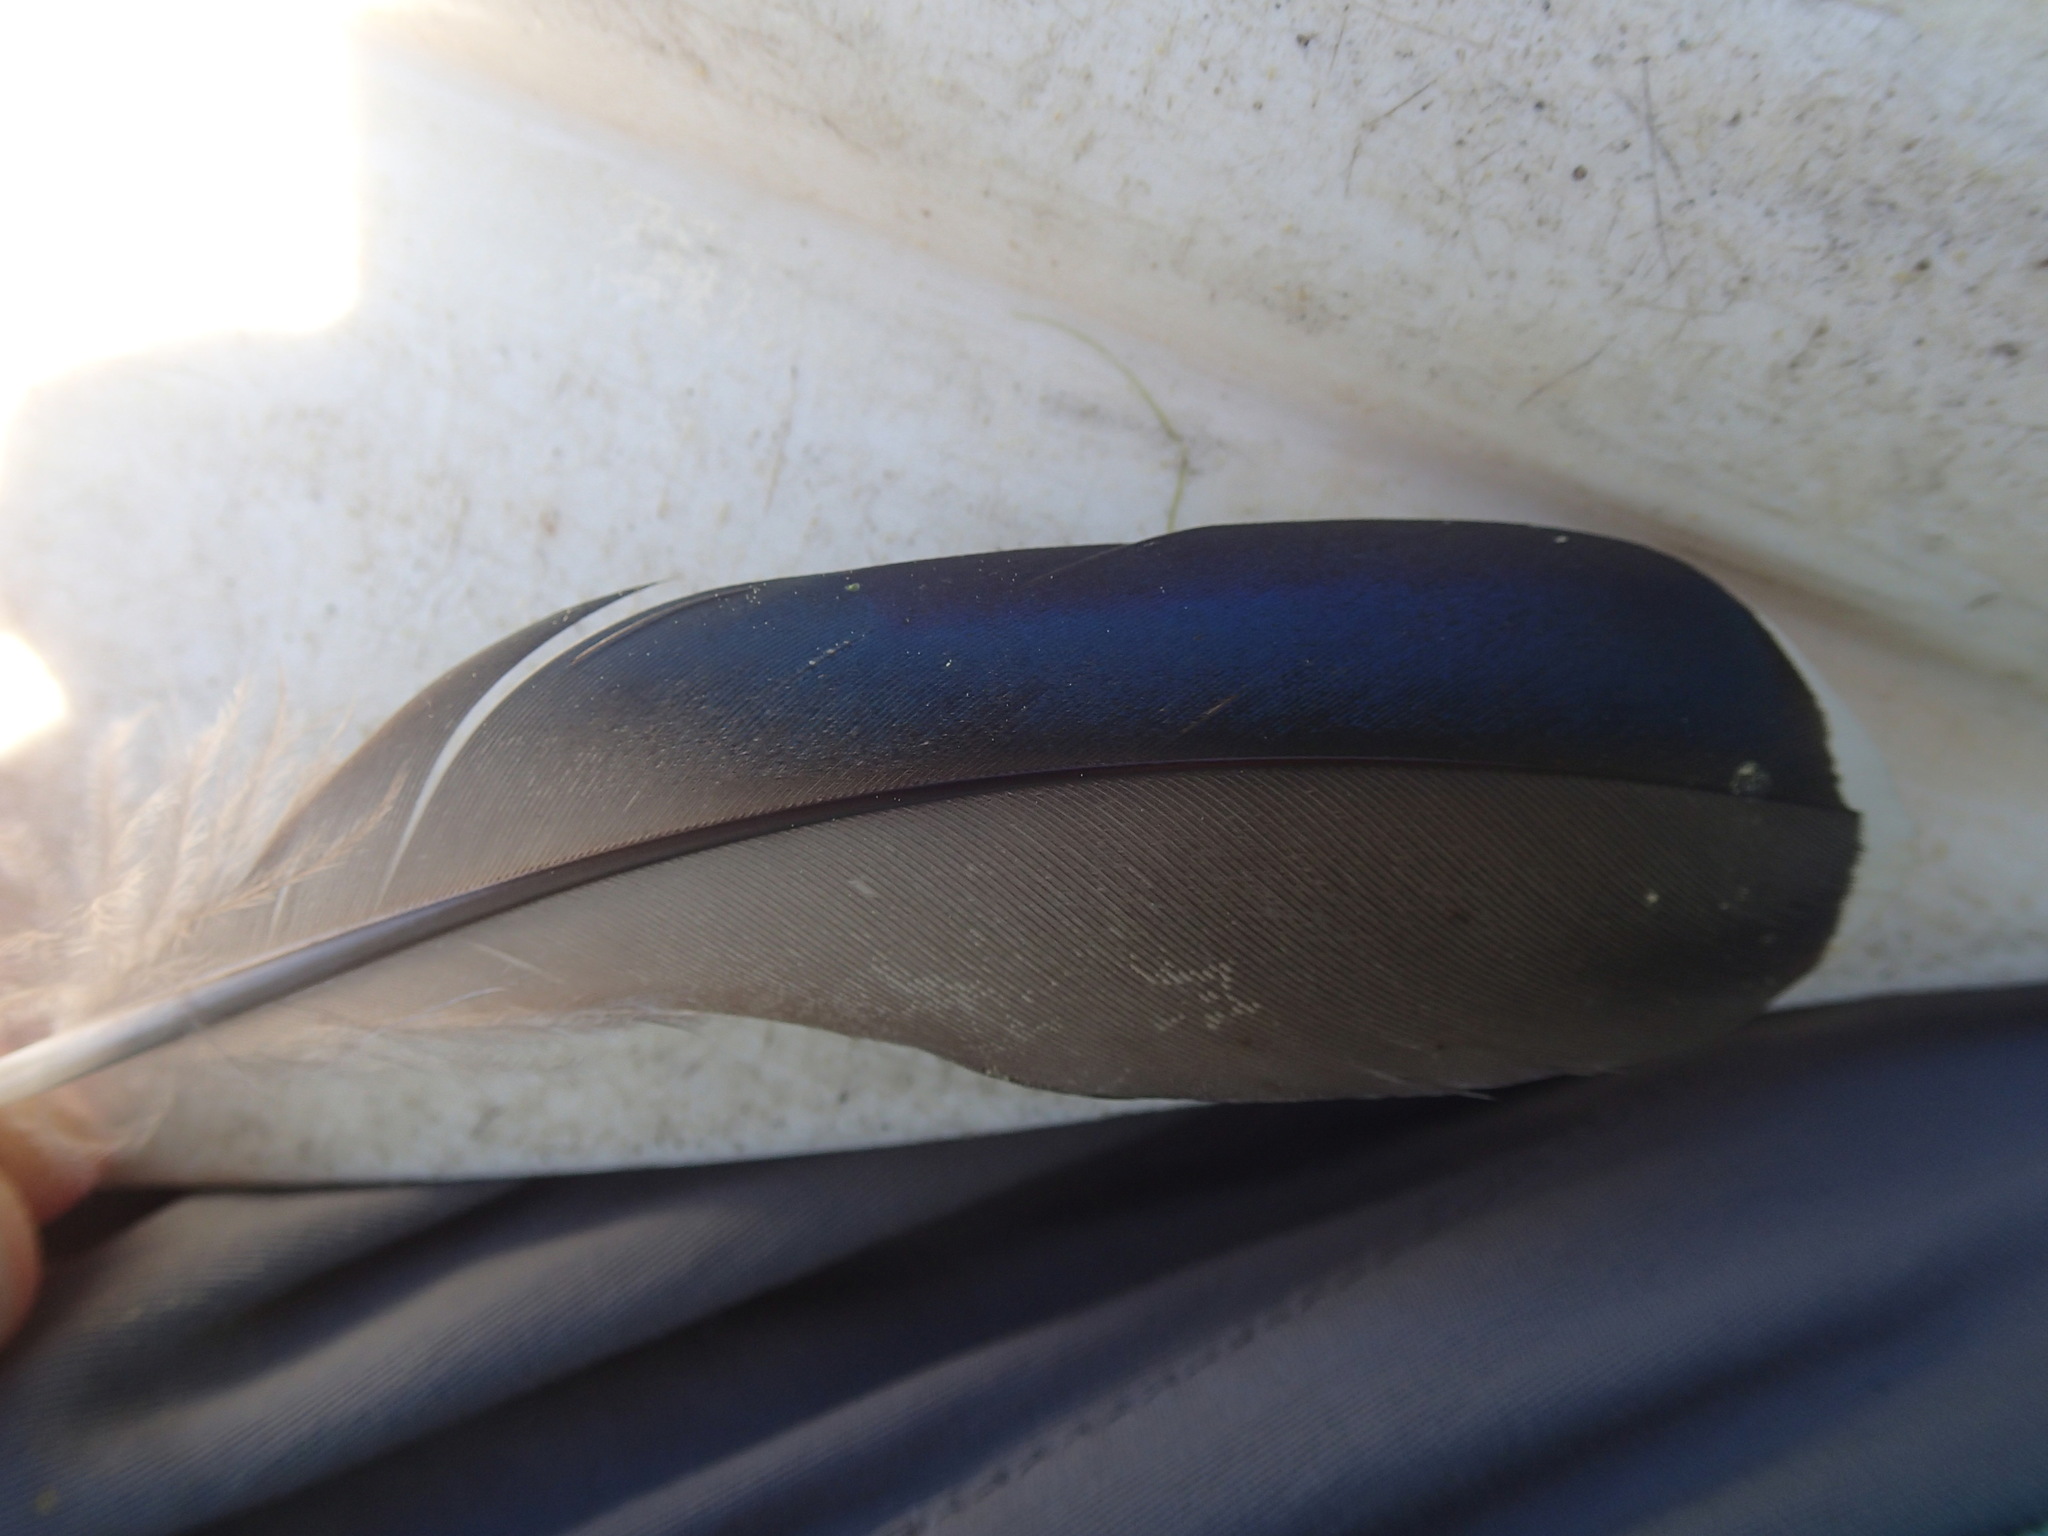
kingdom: Animalia
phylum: Chordata
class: Aves
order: Anseriformes
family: Anatidae
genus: Aix
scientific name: Aix sponsa
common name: Wood duck
